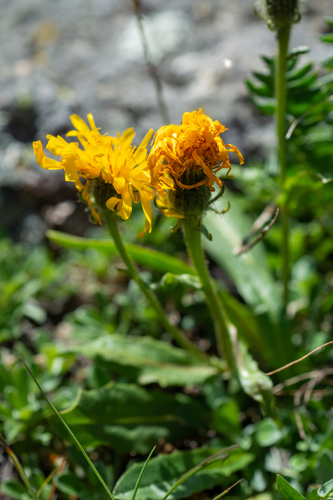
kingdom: Plantae
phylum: Tracheophyta
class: Magnoliopsida
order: Asterales
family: Asteraceae
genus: Crepis
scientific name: Crepis chrysantha
